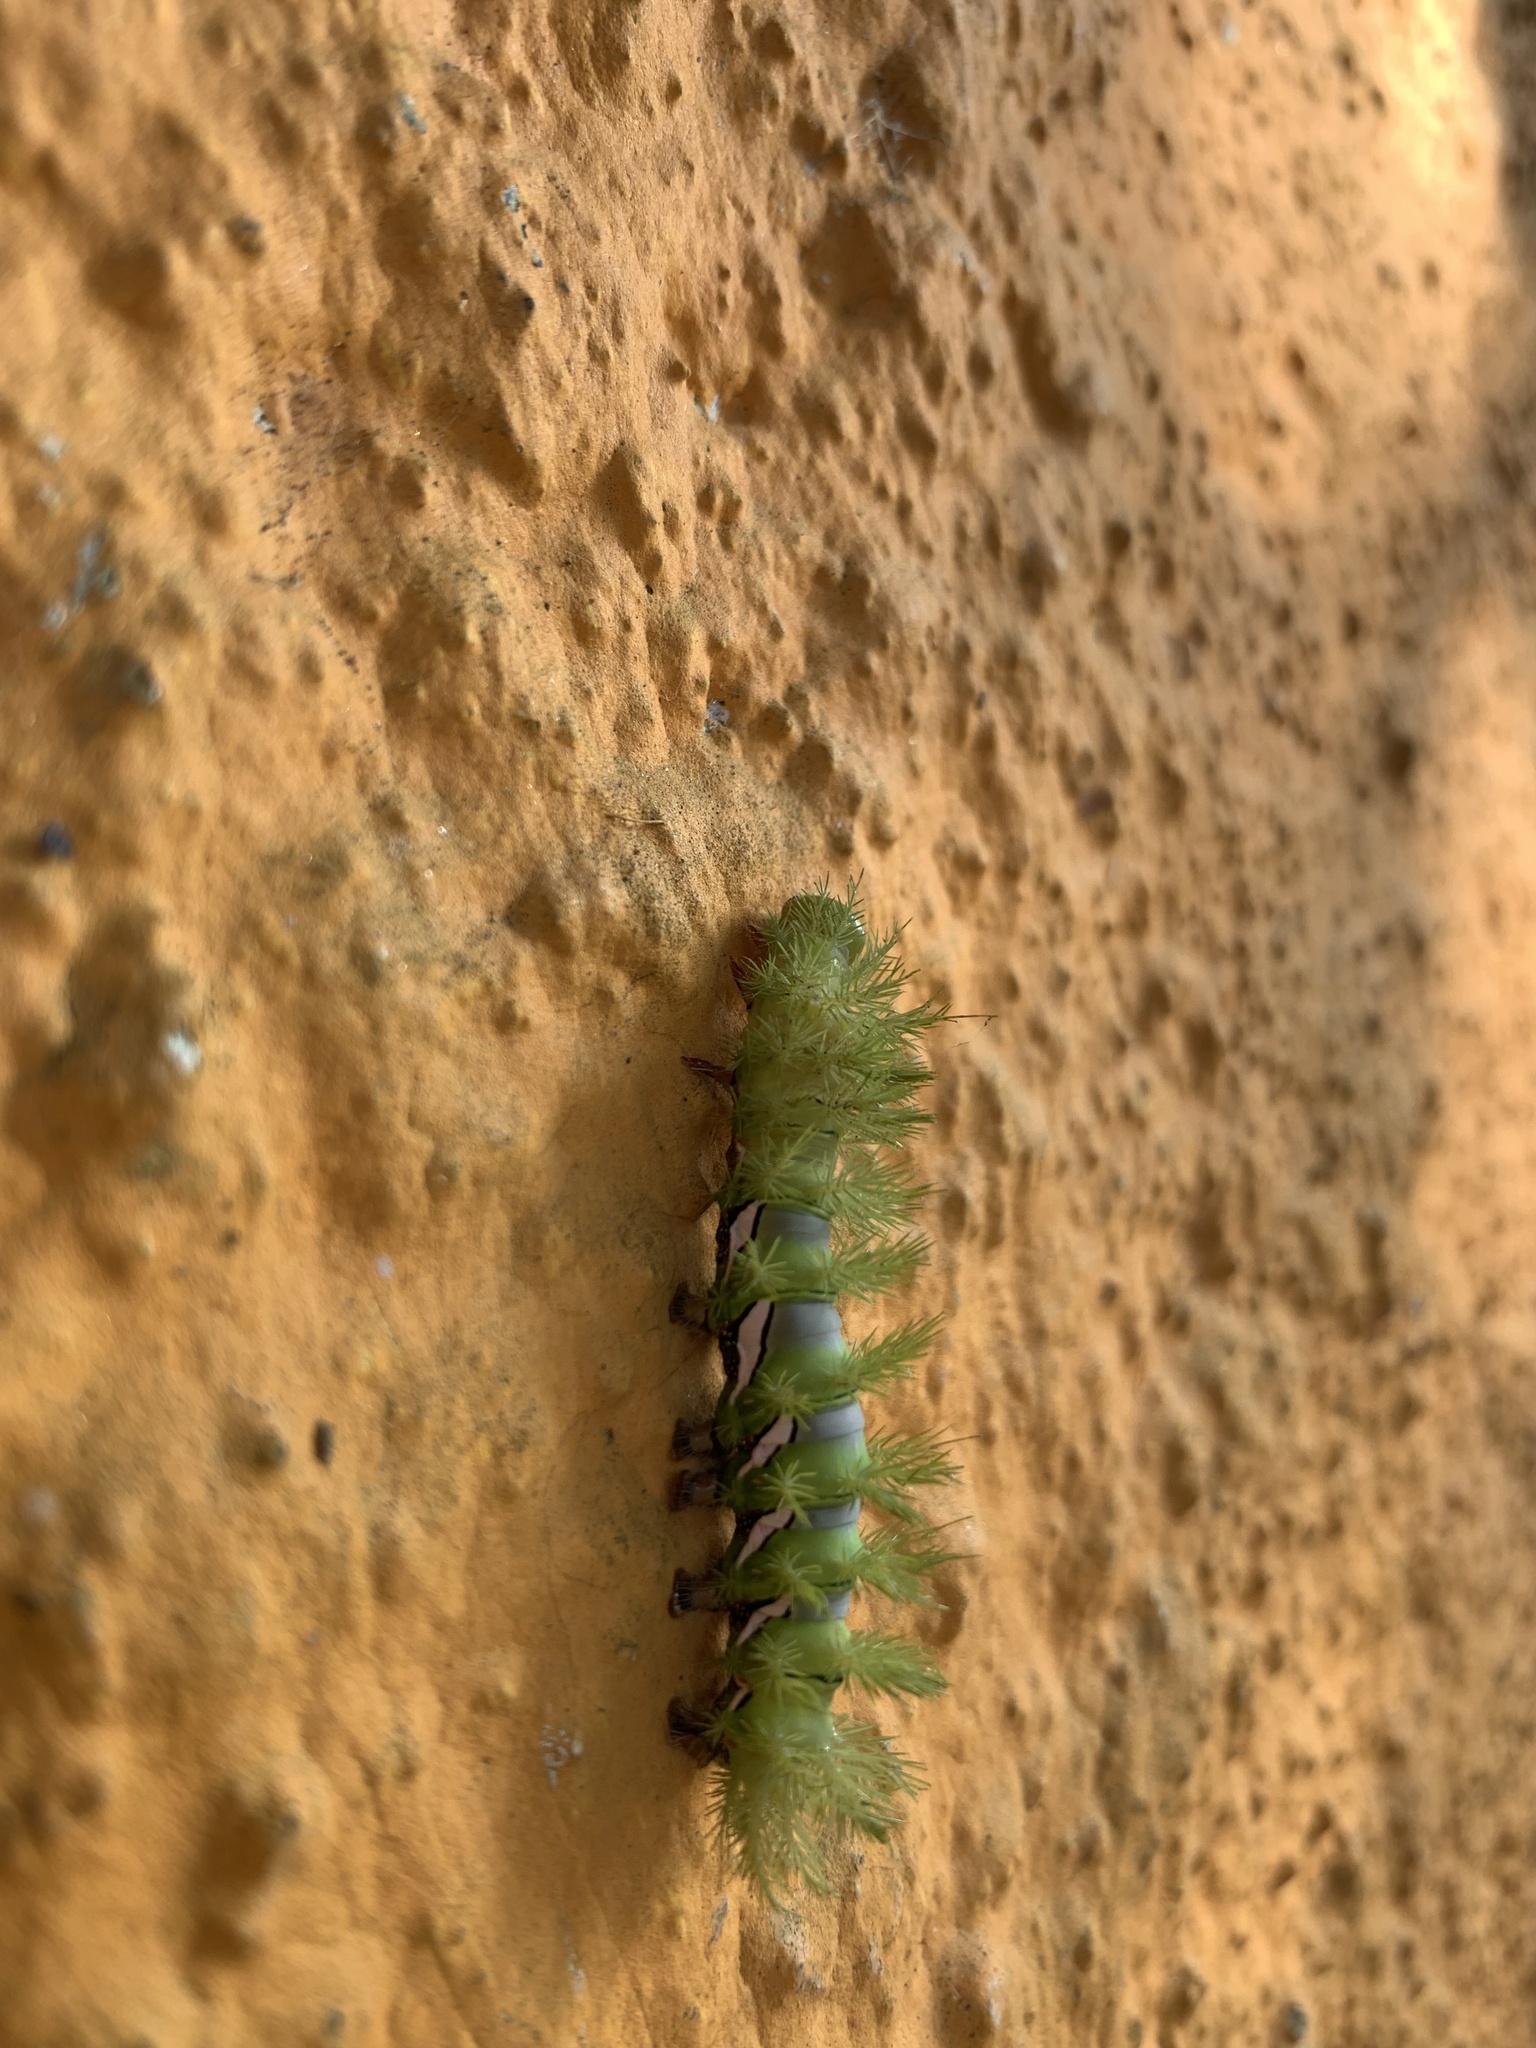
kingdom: Animalia
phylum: Arthropoda
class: Insecta
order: Lepidoptera
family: Saturniidae
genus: Automeris
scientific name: Automeris naranja
